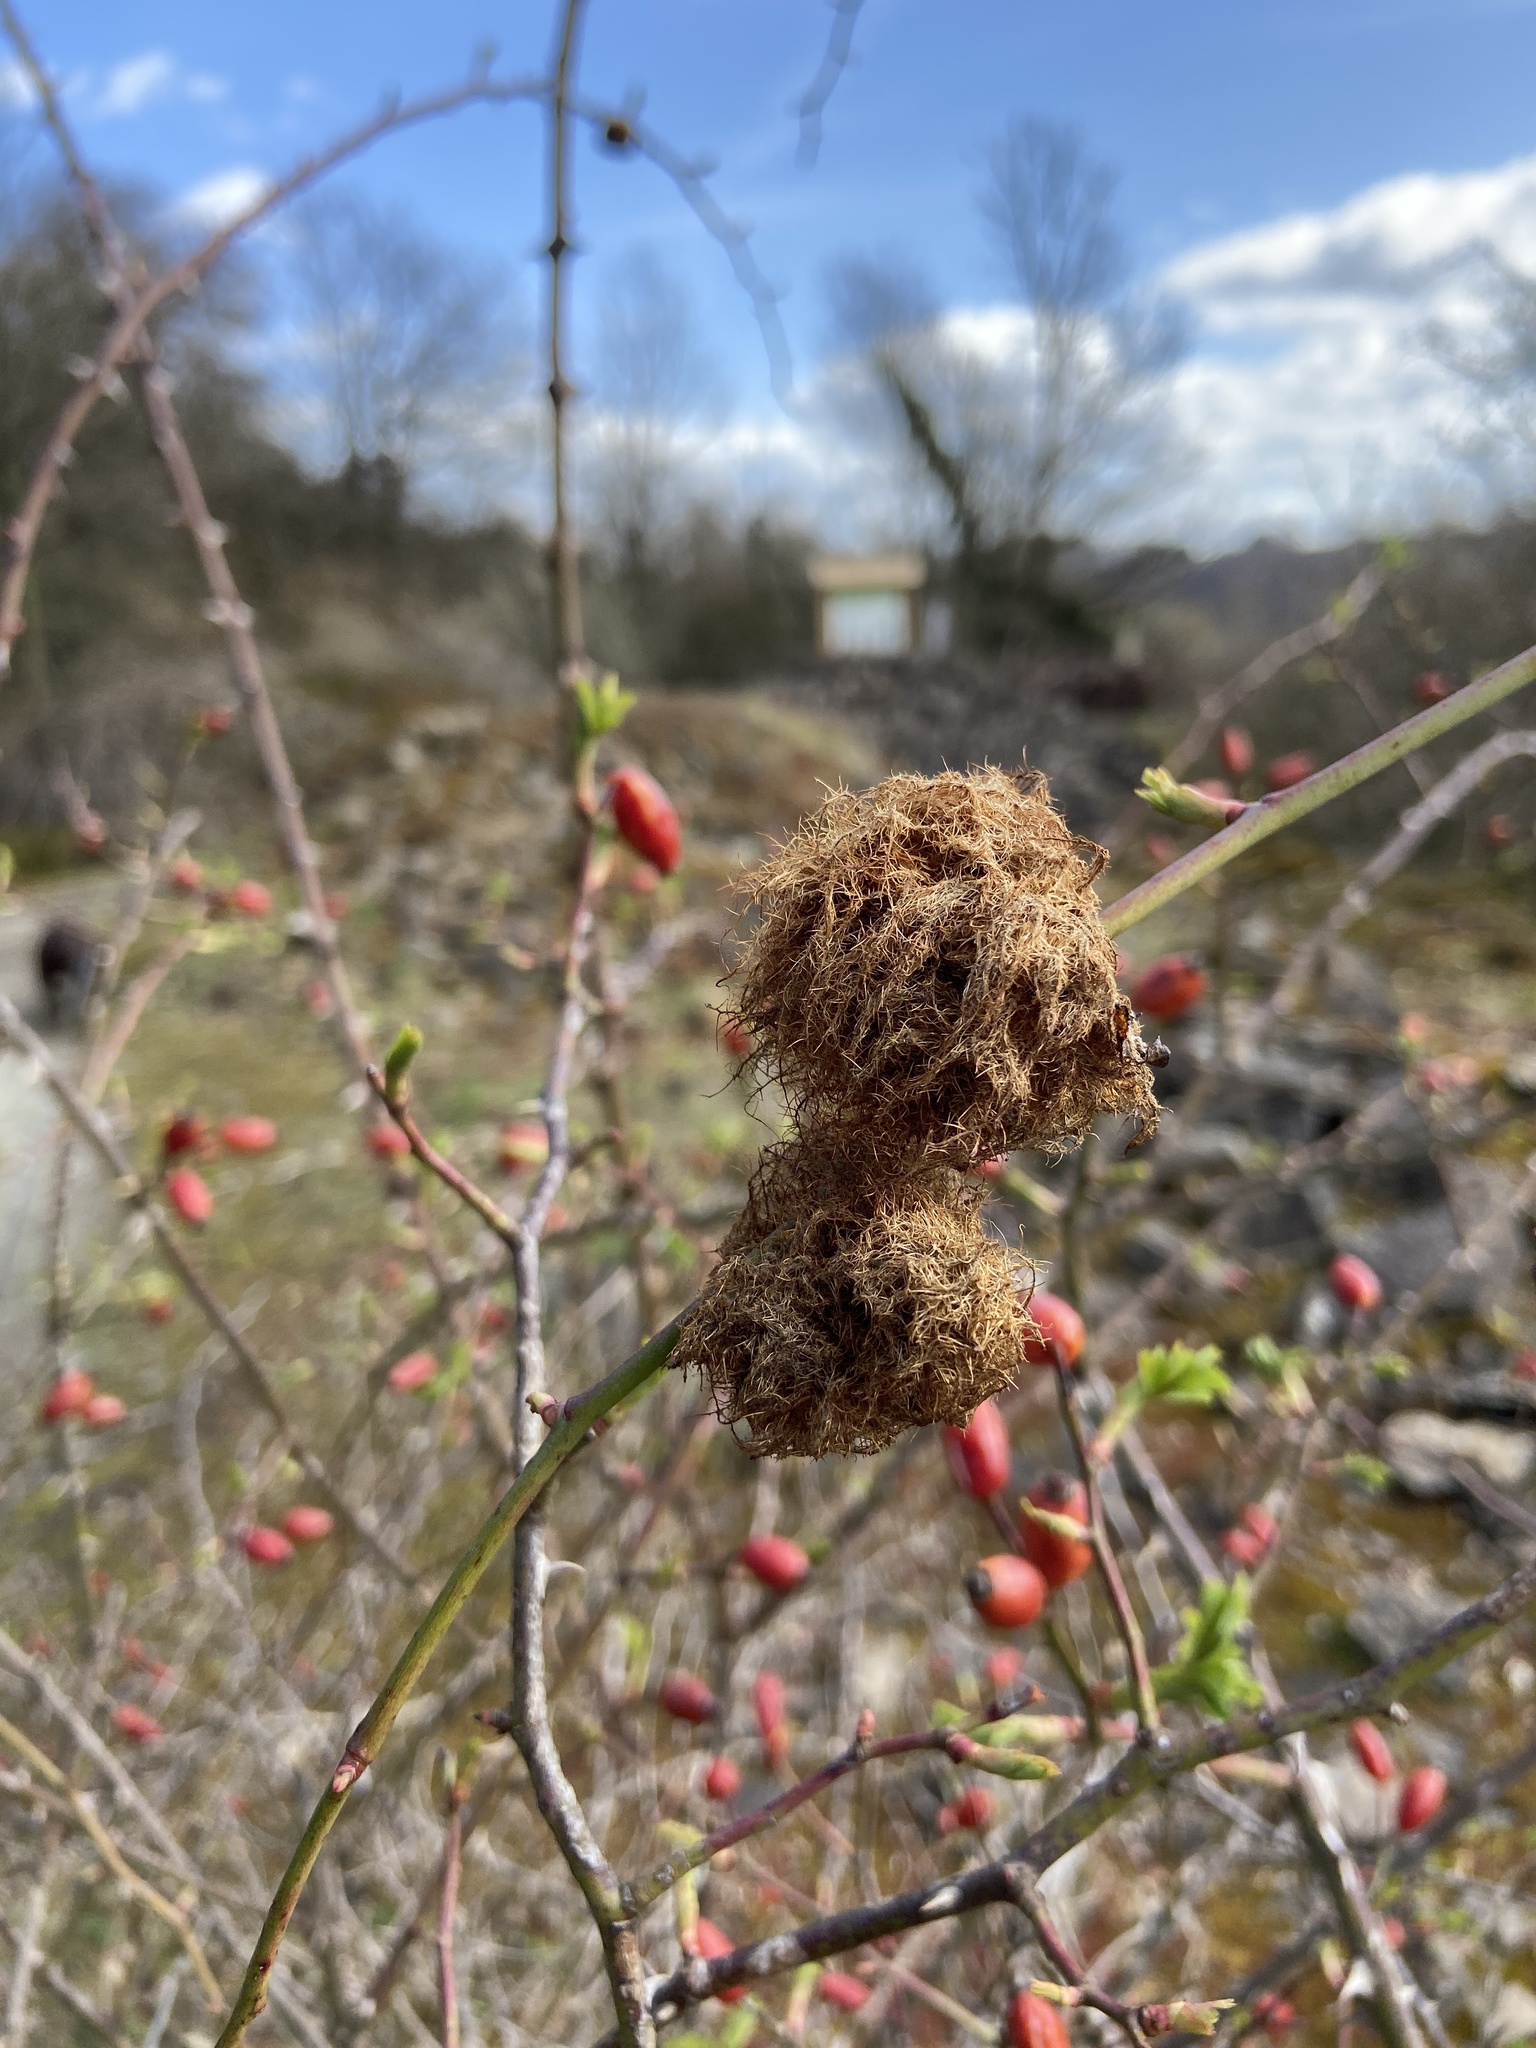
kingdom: Animalia
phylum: Arthropoda
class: Insecta
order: Hymenoptera
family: Cynipidae
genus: Diplolepis
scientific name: Diplolepis rosae
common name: Bedeguar gall
